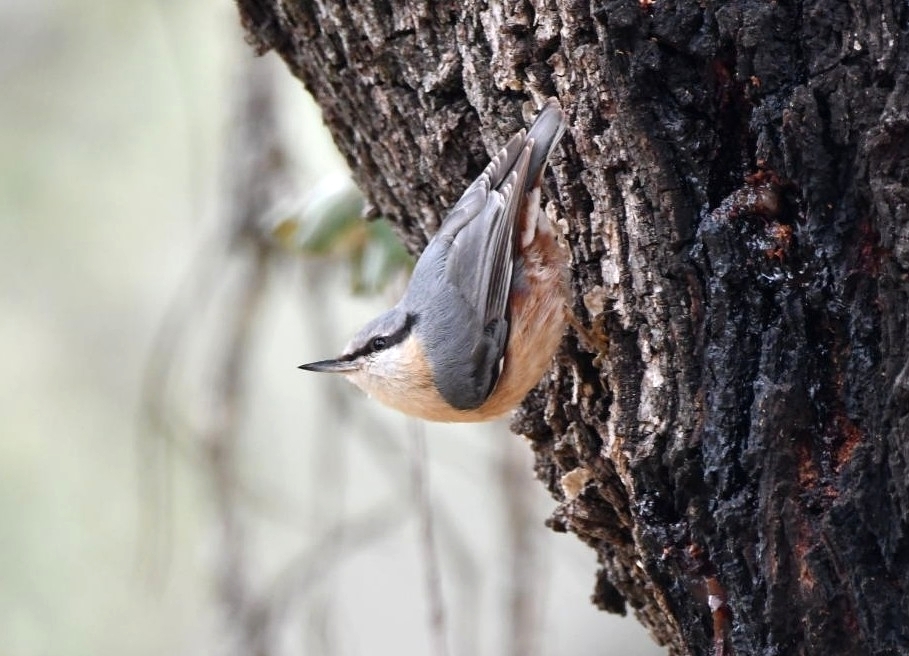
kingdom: Animalia
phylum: Chordata
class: Aves
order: Passeriformes
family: Sittidae
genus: Sitta
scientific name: Sitta europaea
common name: Eurasian nuthatch
